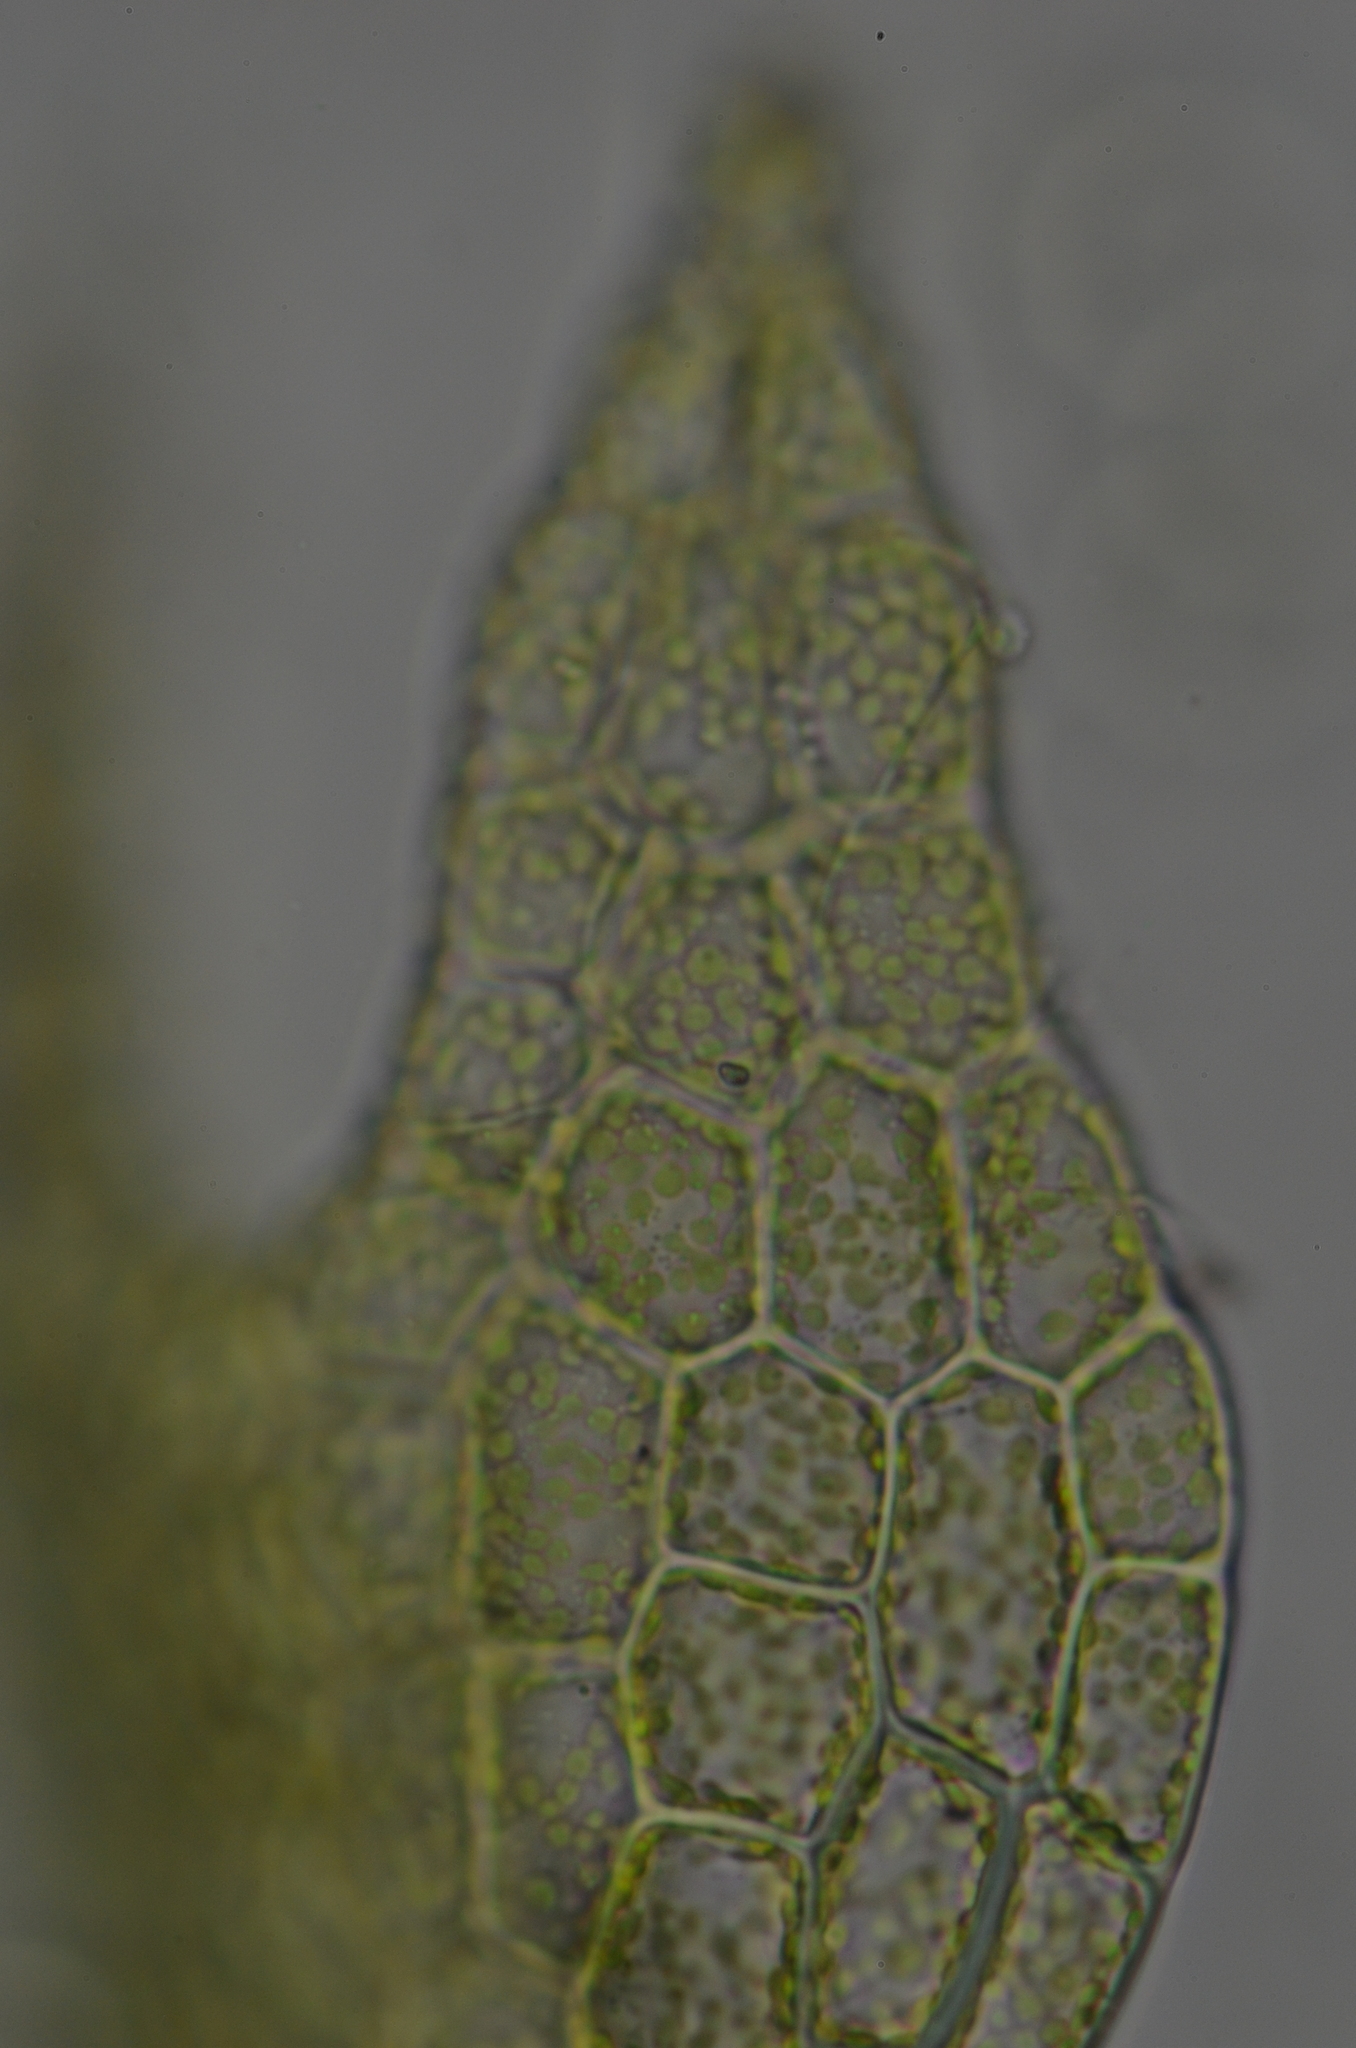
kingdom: Plantae
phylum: Marchantiophyta
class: Jungermanniopsida
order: Jungermanniales
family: Cephaloziaceae
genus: Cephalozia
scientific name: Cephalozia bicuspidata
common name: Two-horned pincerwort
